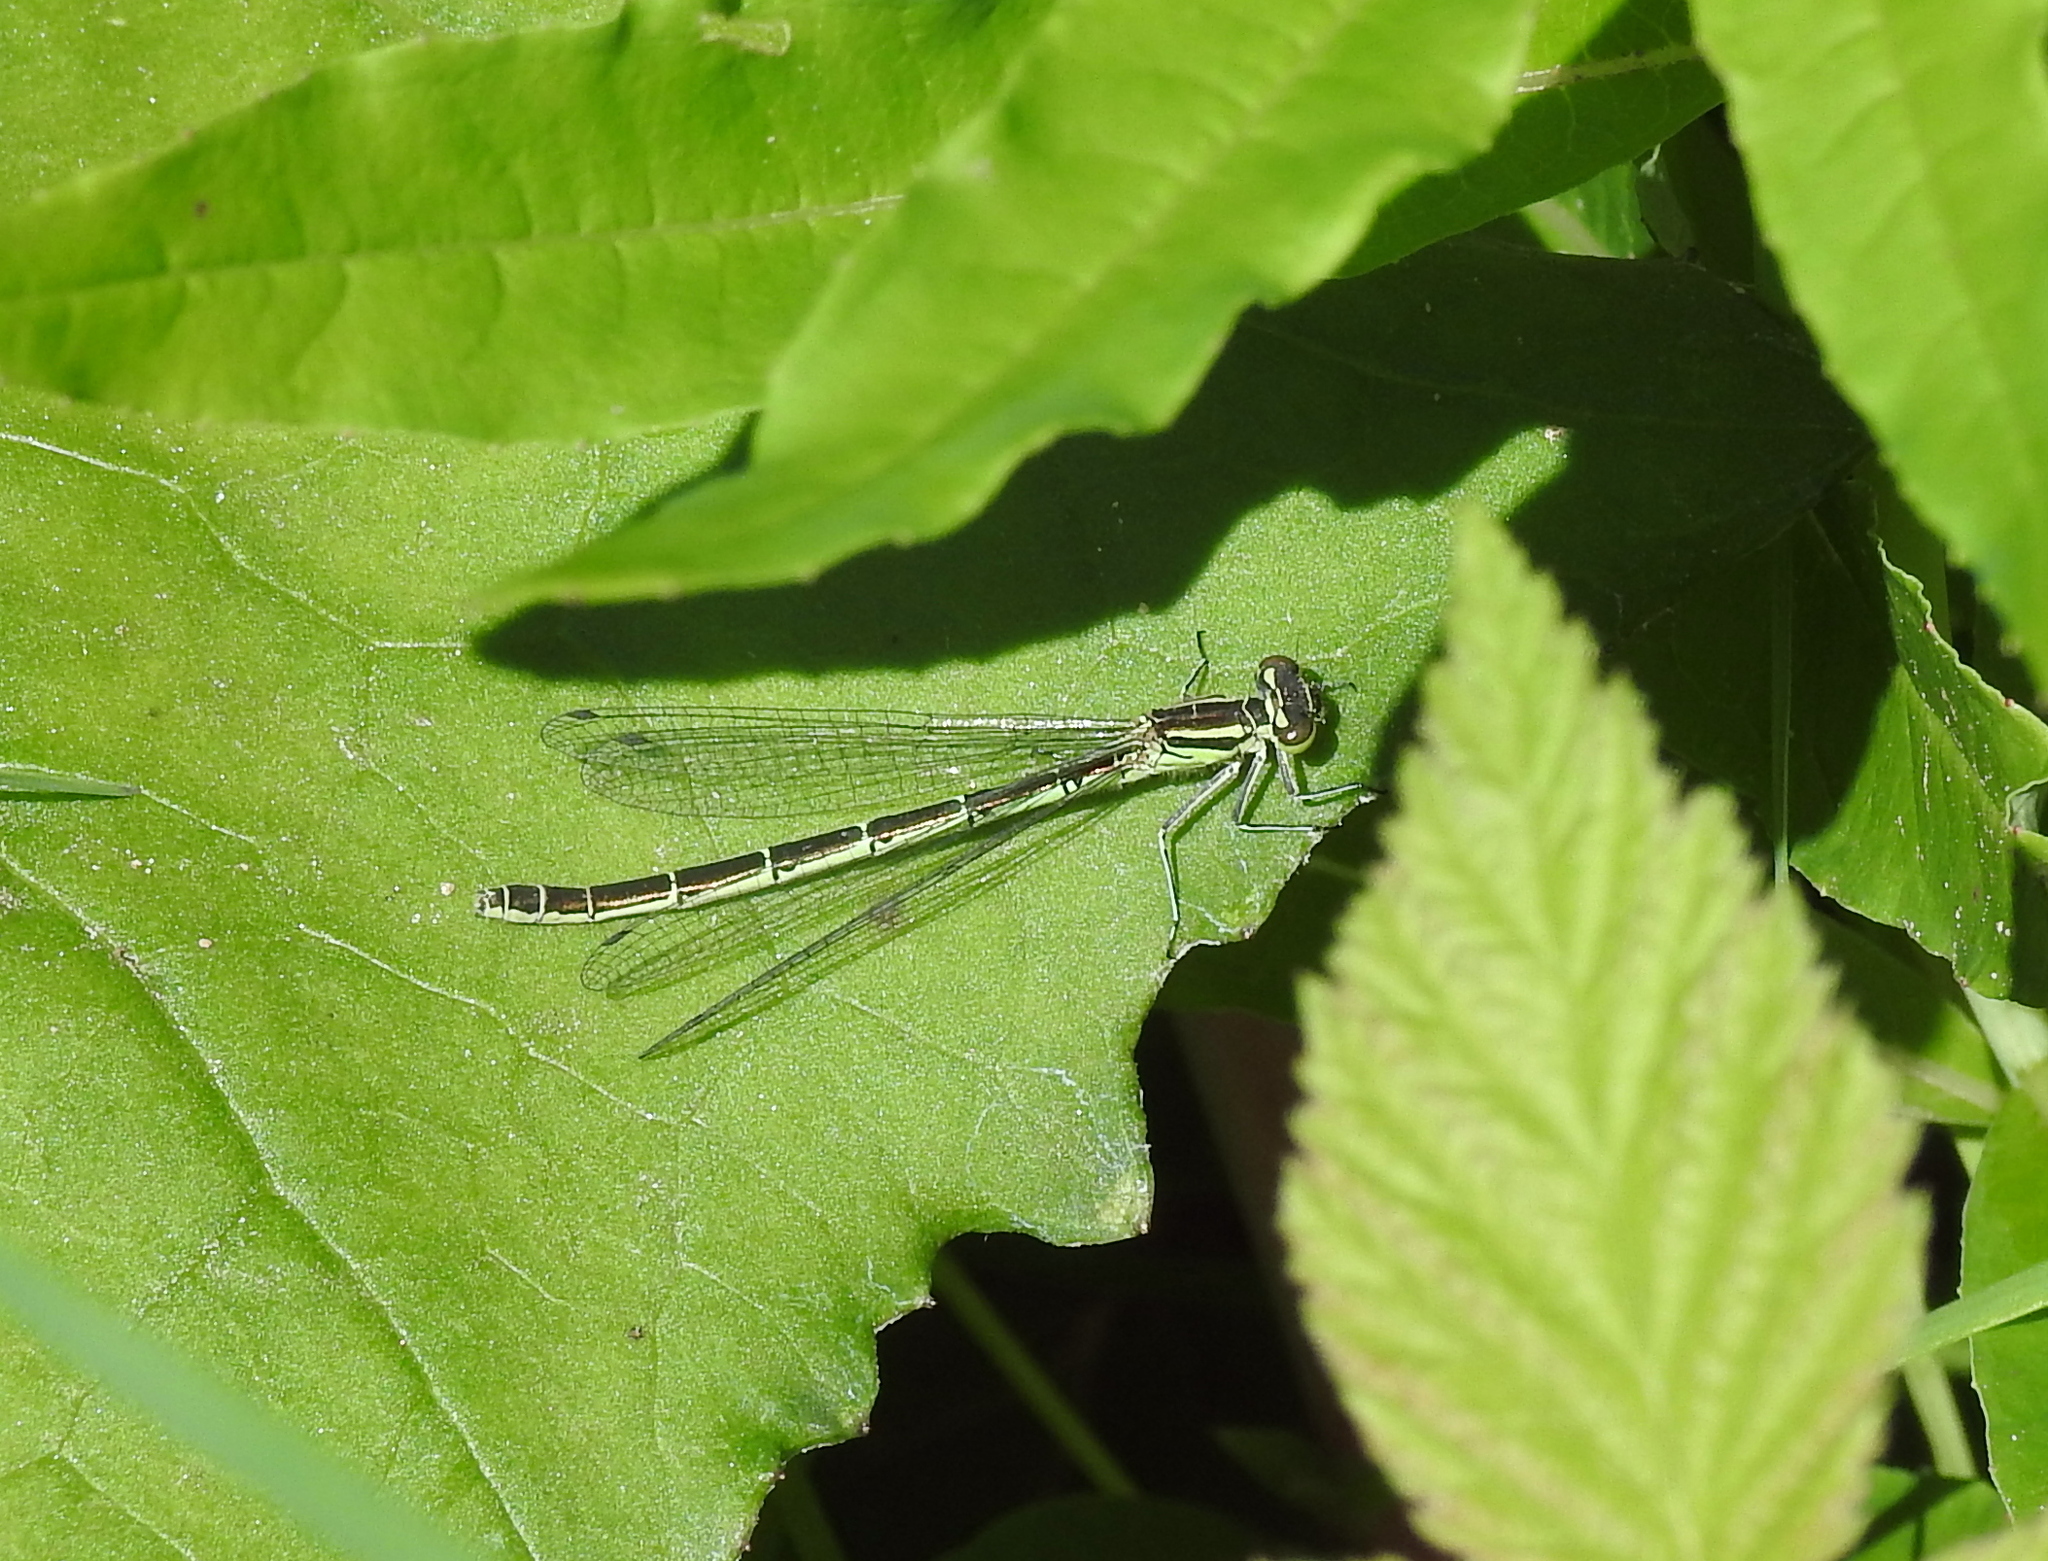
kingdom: Animalia
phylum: Arthropoda
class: Insecta
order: Odonata
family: Coenagrionidae
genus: Coenagrion
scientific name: Coenagrion hastulatum
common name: Spearhead bluet
